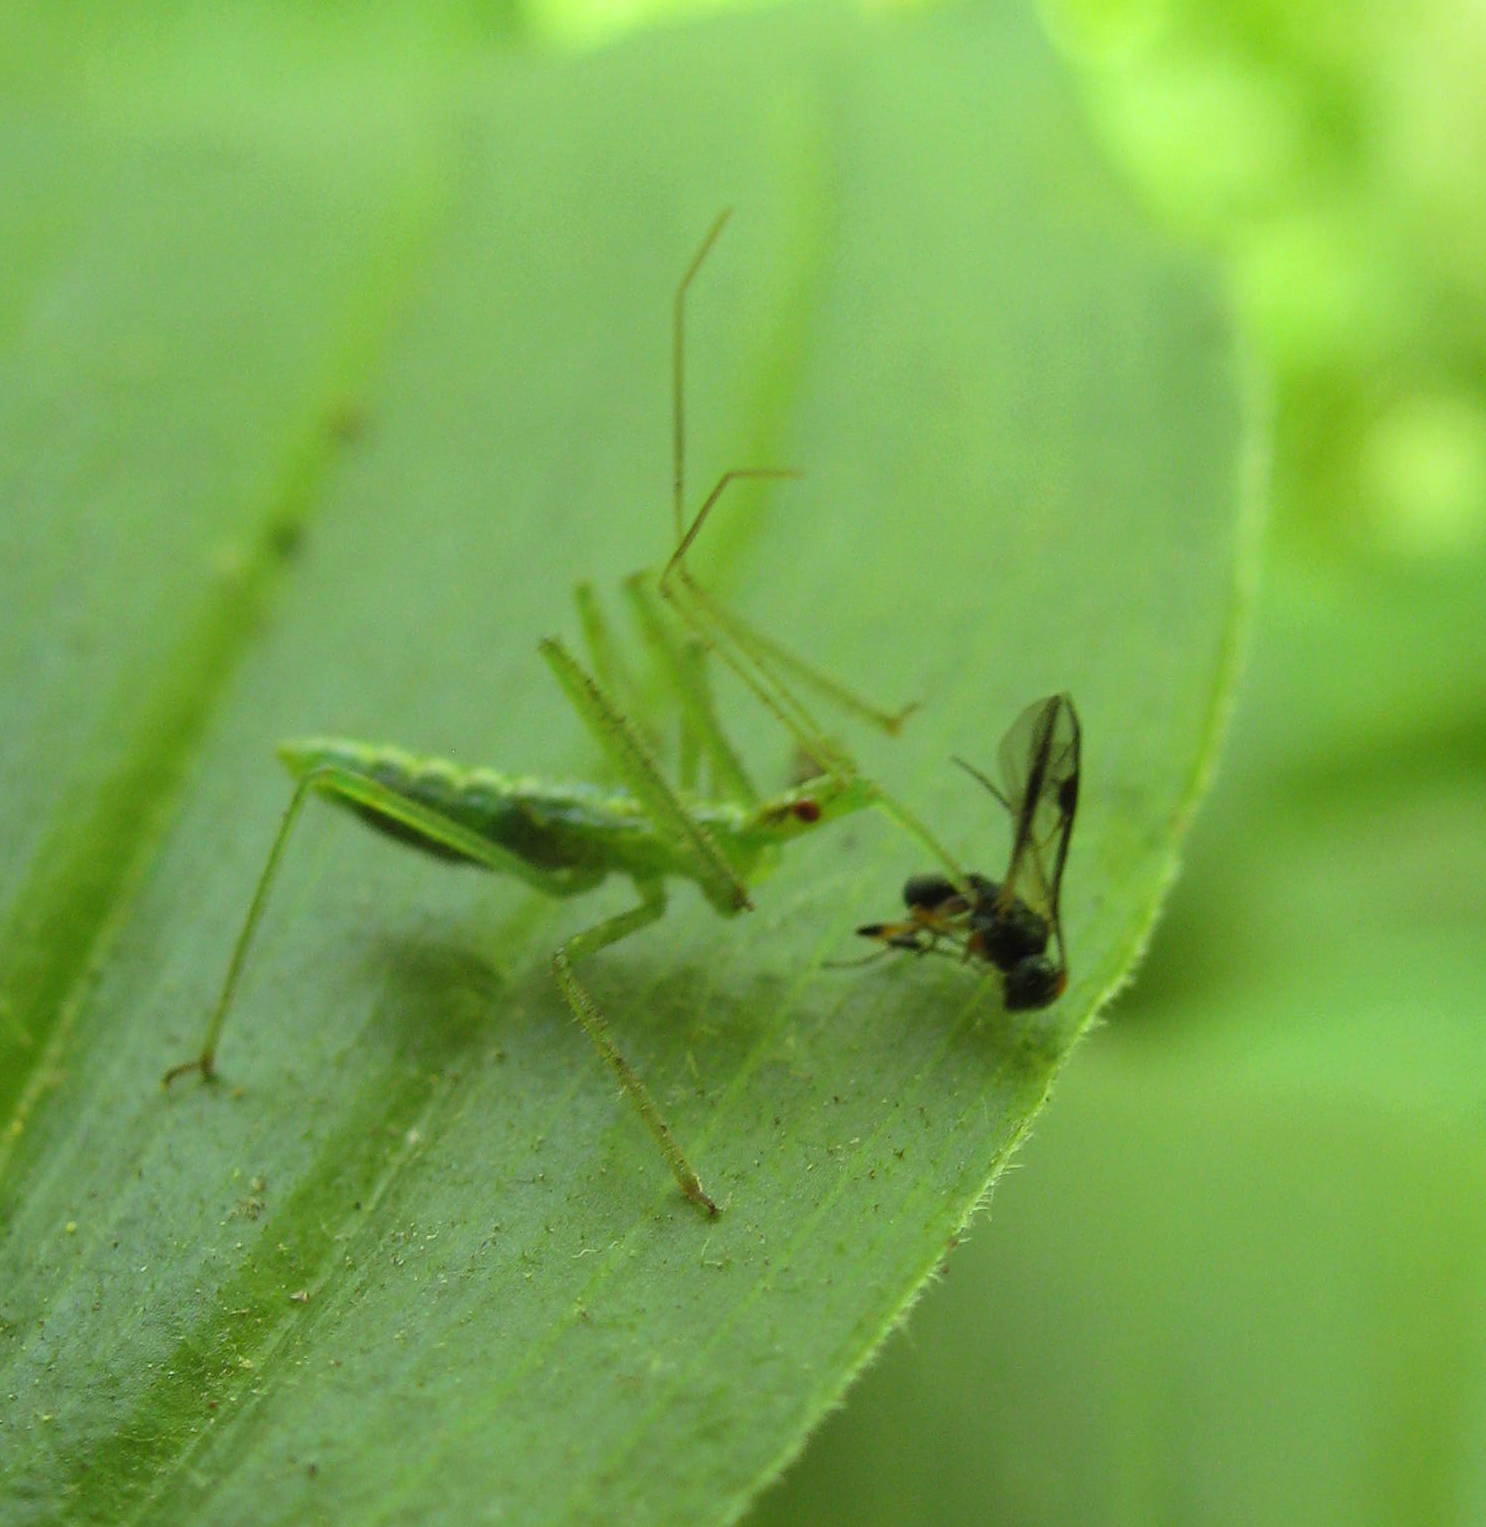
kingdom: Animalia
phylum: Arthropoda
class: Insecta
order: Hemiptera
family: Reduviidae
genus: Zelus
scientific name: Zelus luridus
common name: Pale green assassin bug
